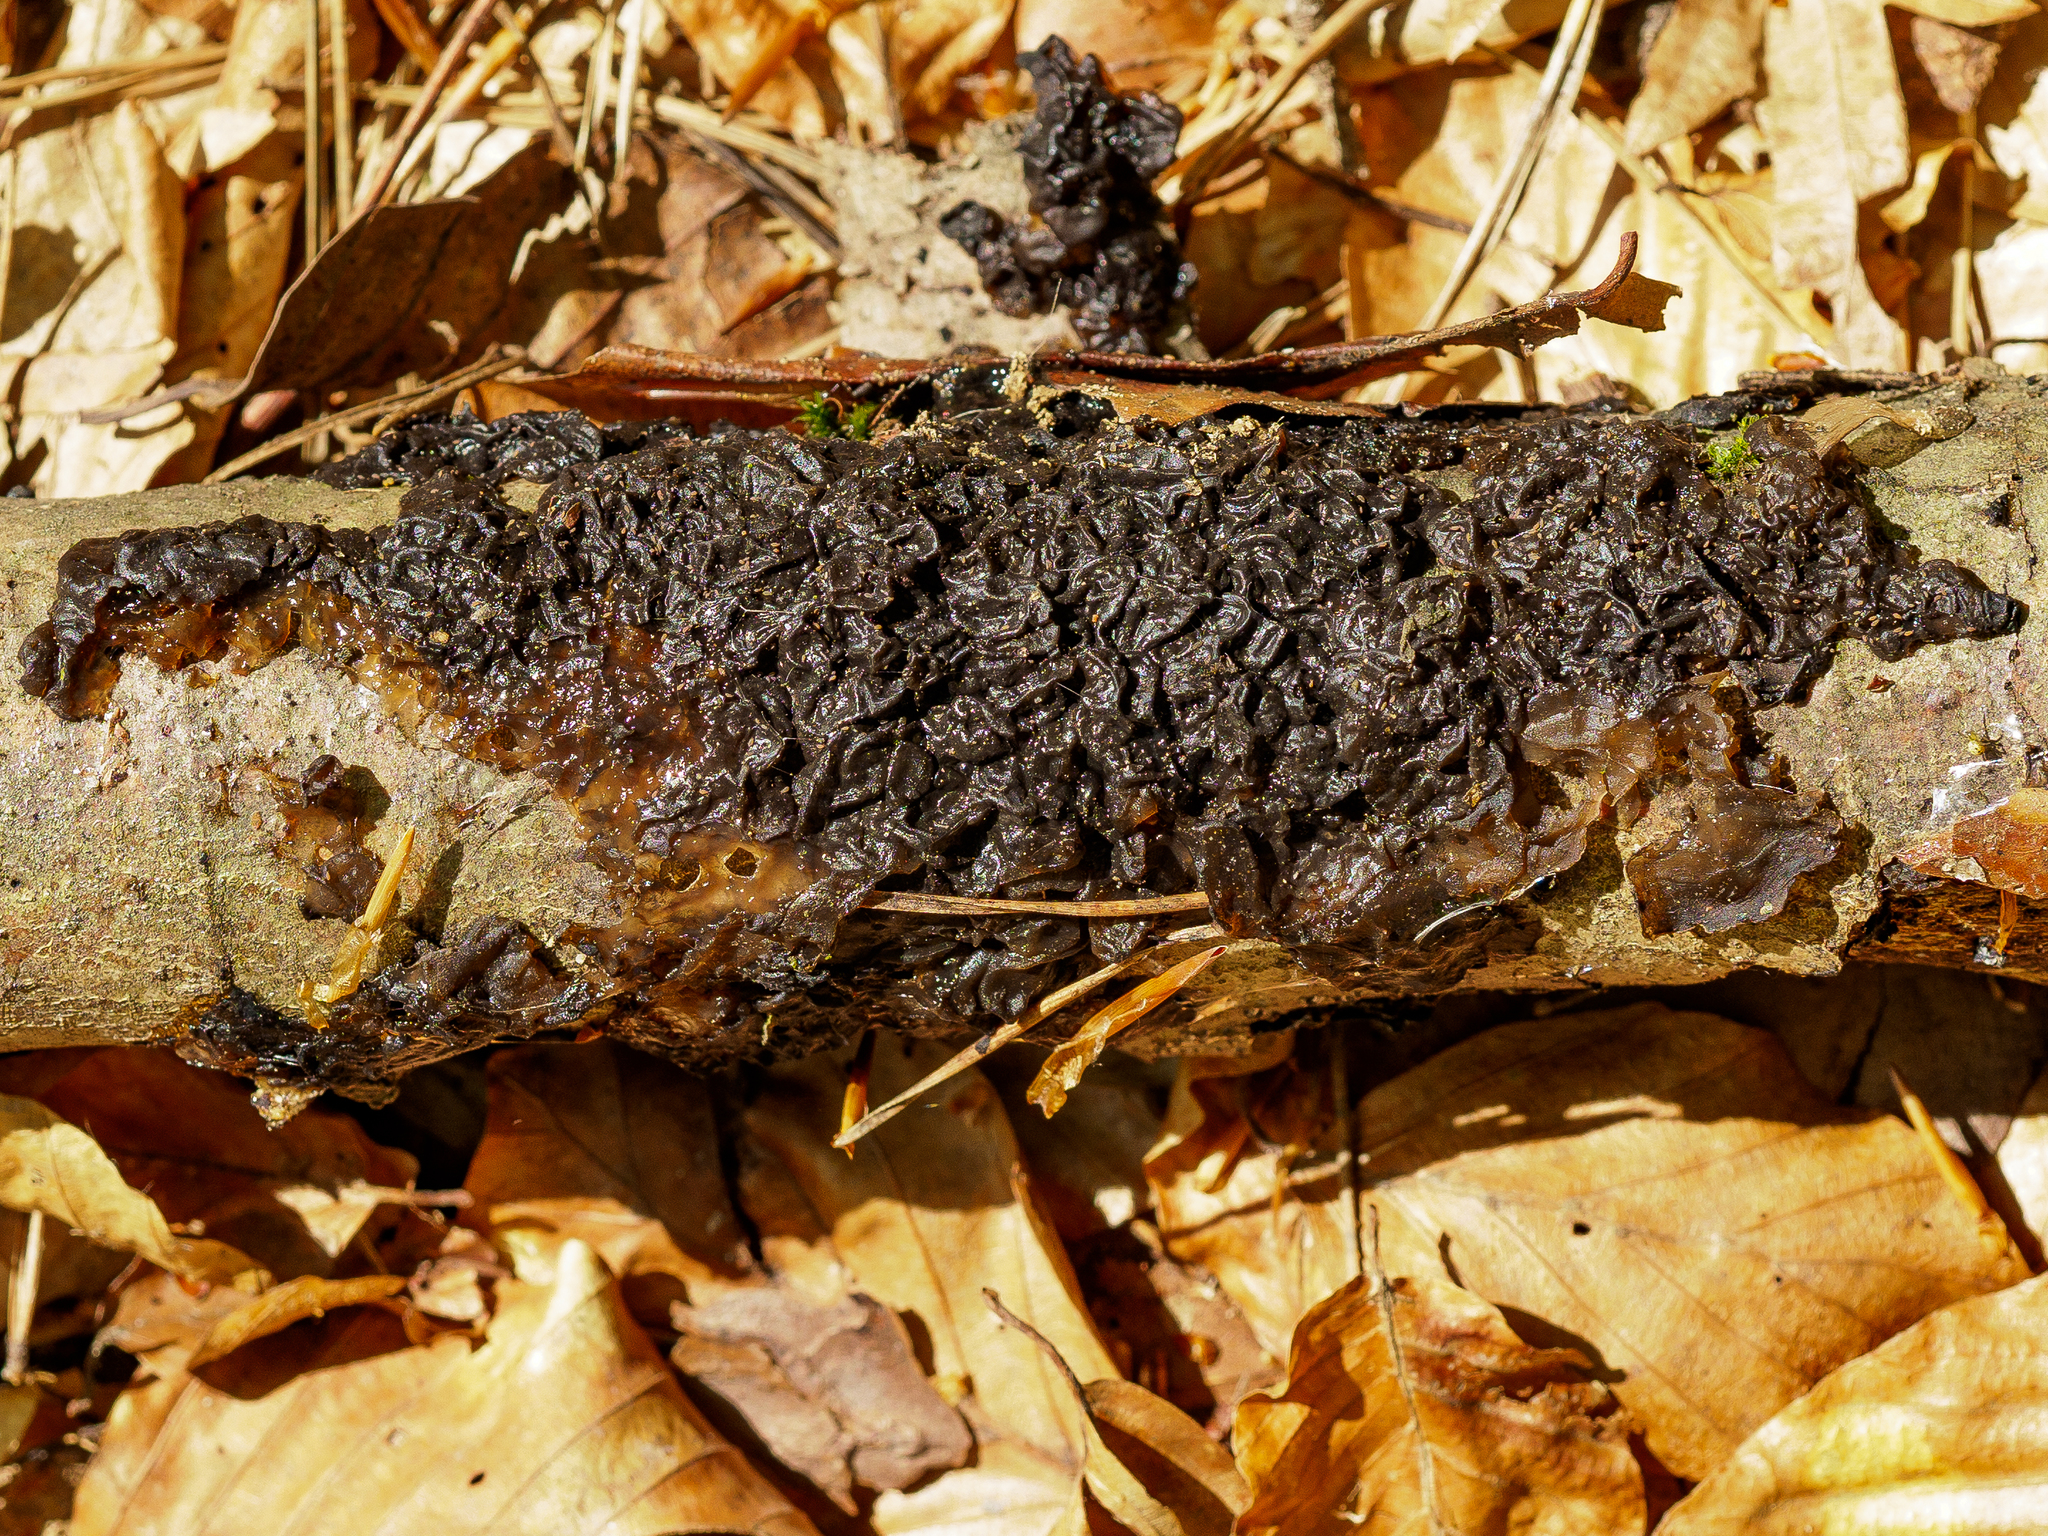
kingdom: Fungi
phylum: Basidiomycota
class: Agaricomycetes
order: Auriculariales
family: Auriculariaceae
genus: Exidia
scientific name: Exidia nigricans
